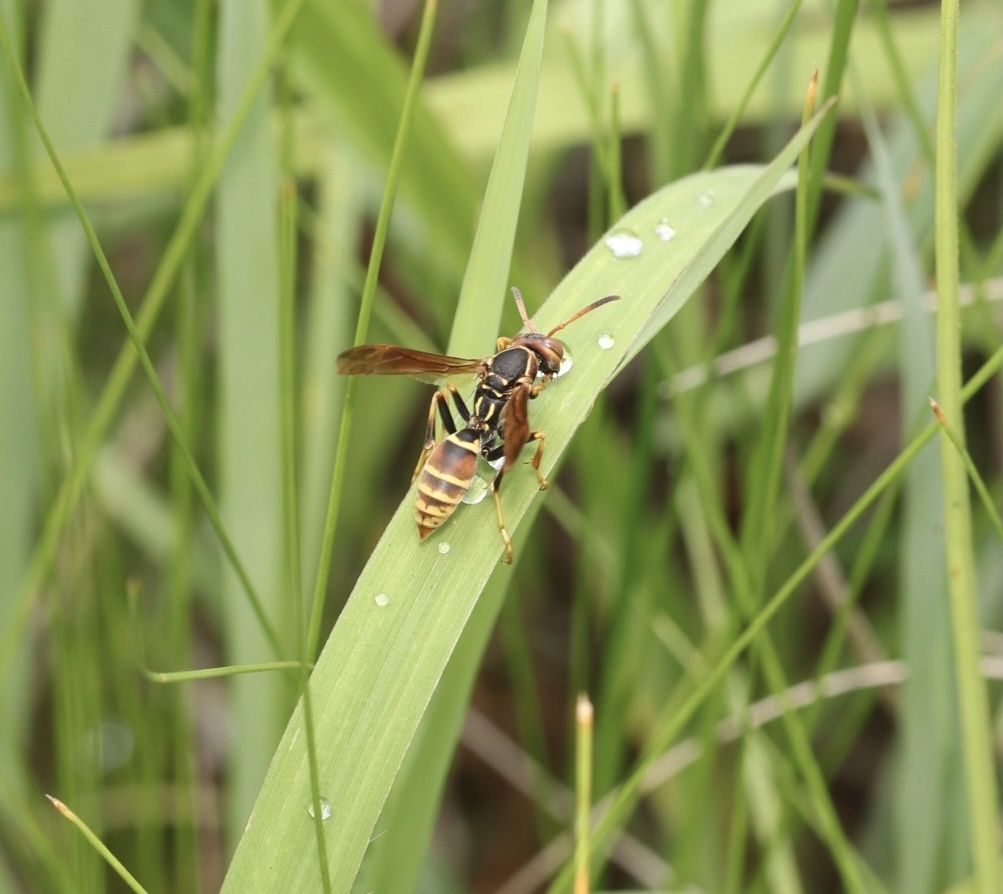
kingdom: Animalia
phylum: Arthropoda
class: Insecta
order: Hymenoptera
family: Eumenidae
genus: Polistes
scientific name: Polistes dorsalis
